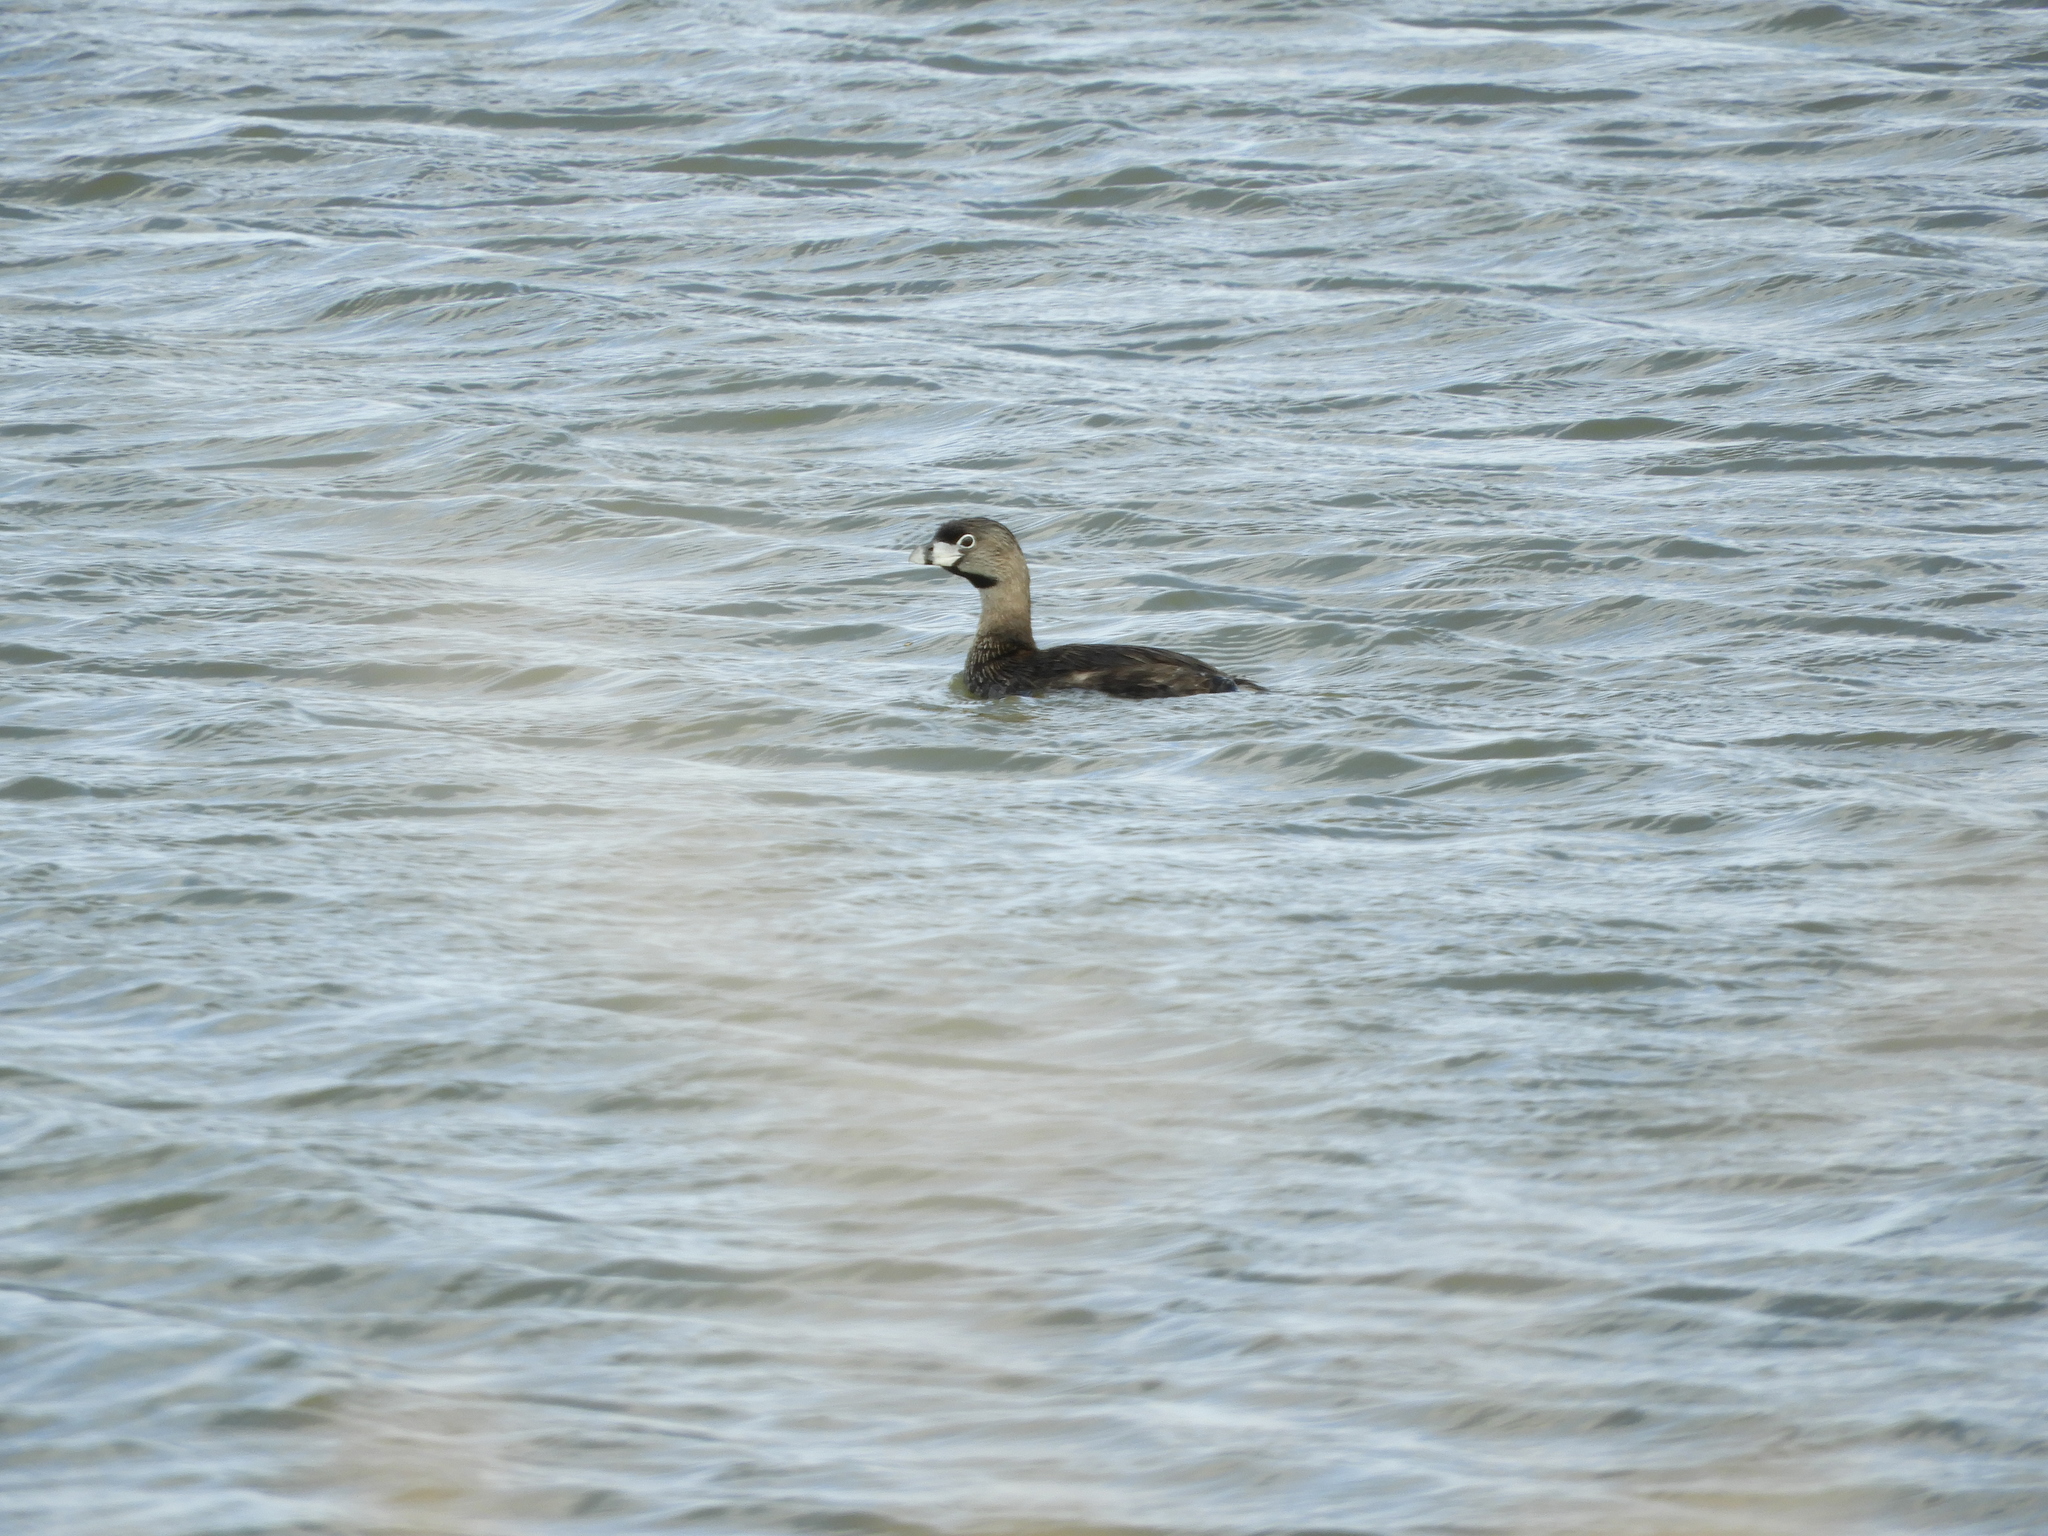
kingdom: Animalia
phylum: Chordata
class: Aves
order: Podicipediformes
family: Podicipedidae
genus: Podilymbus
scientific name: Podilymbus podiceps
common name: Pied-billed grebe
